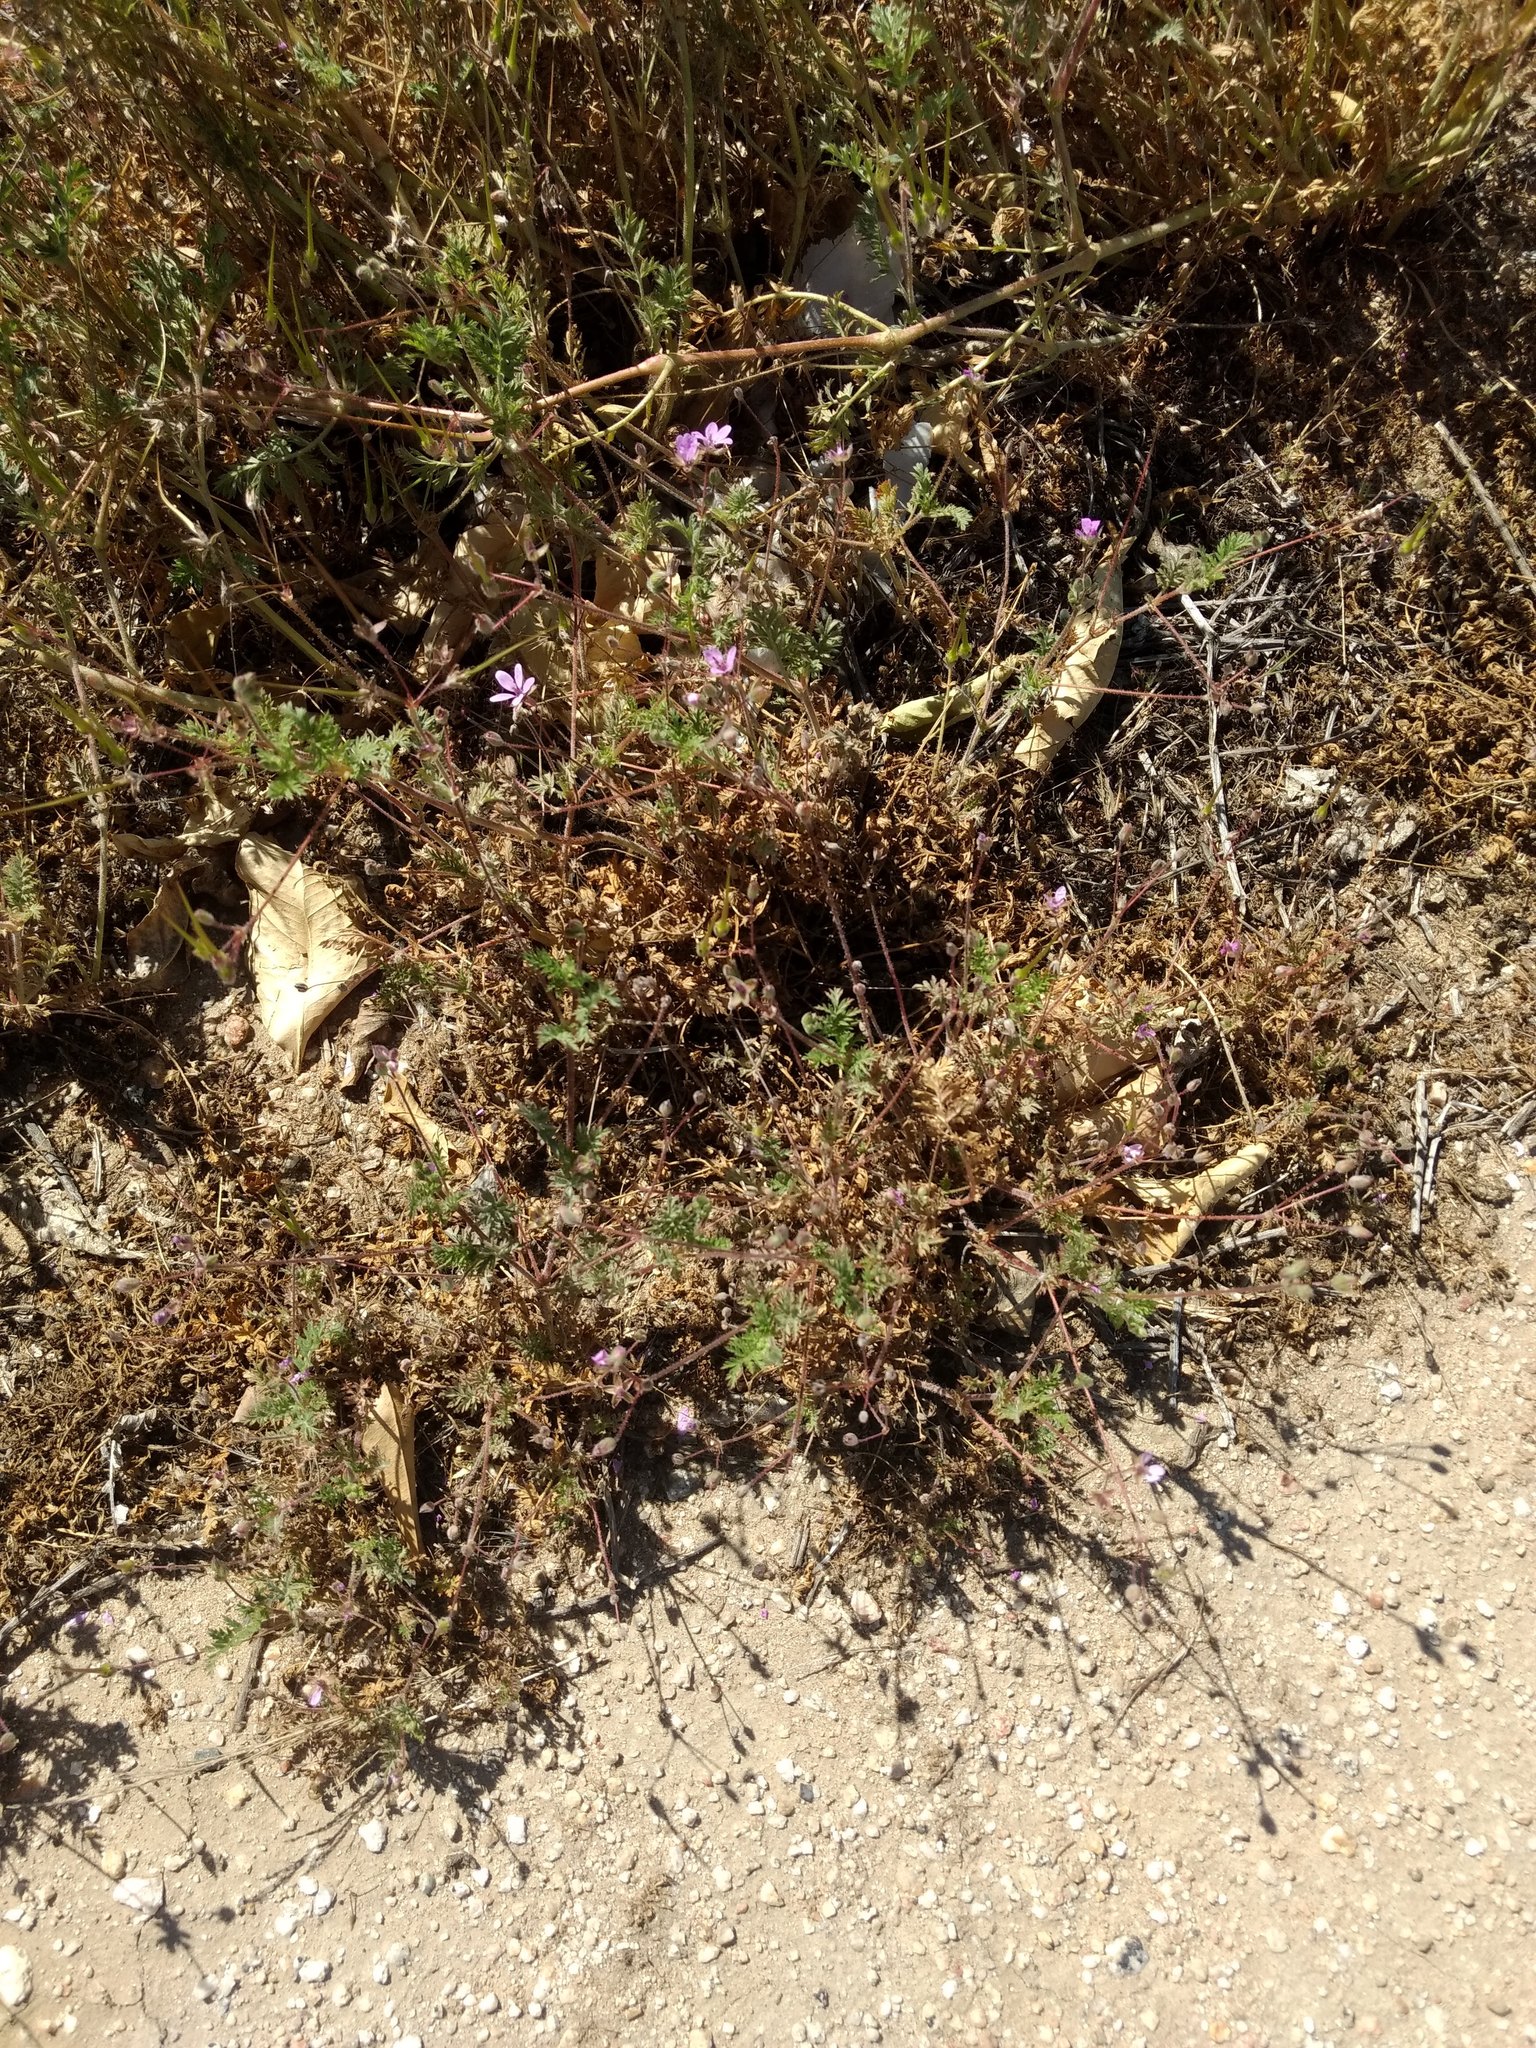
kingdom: Plantae
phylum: Tracheophyta
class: Magnoliopsida
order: Geraniales
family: Geraniaceae
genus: Erodium
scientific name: Erodium cicutarium
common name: Common stork's-bill
